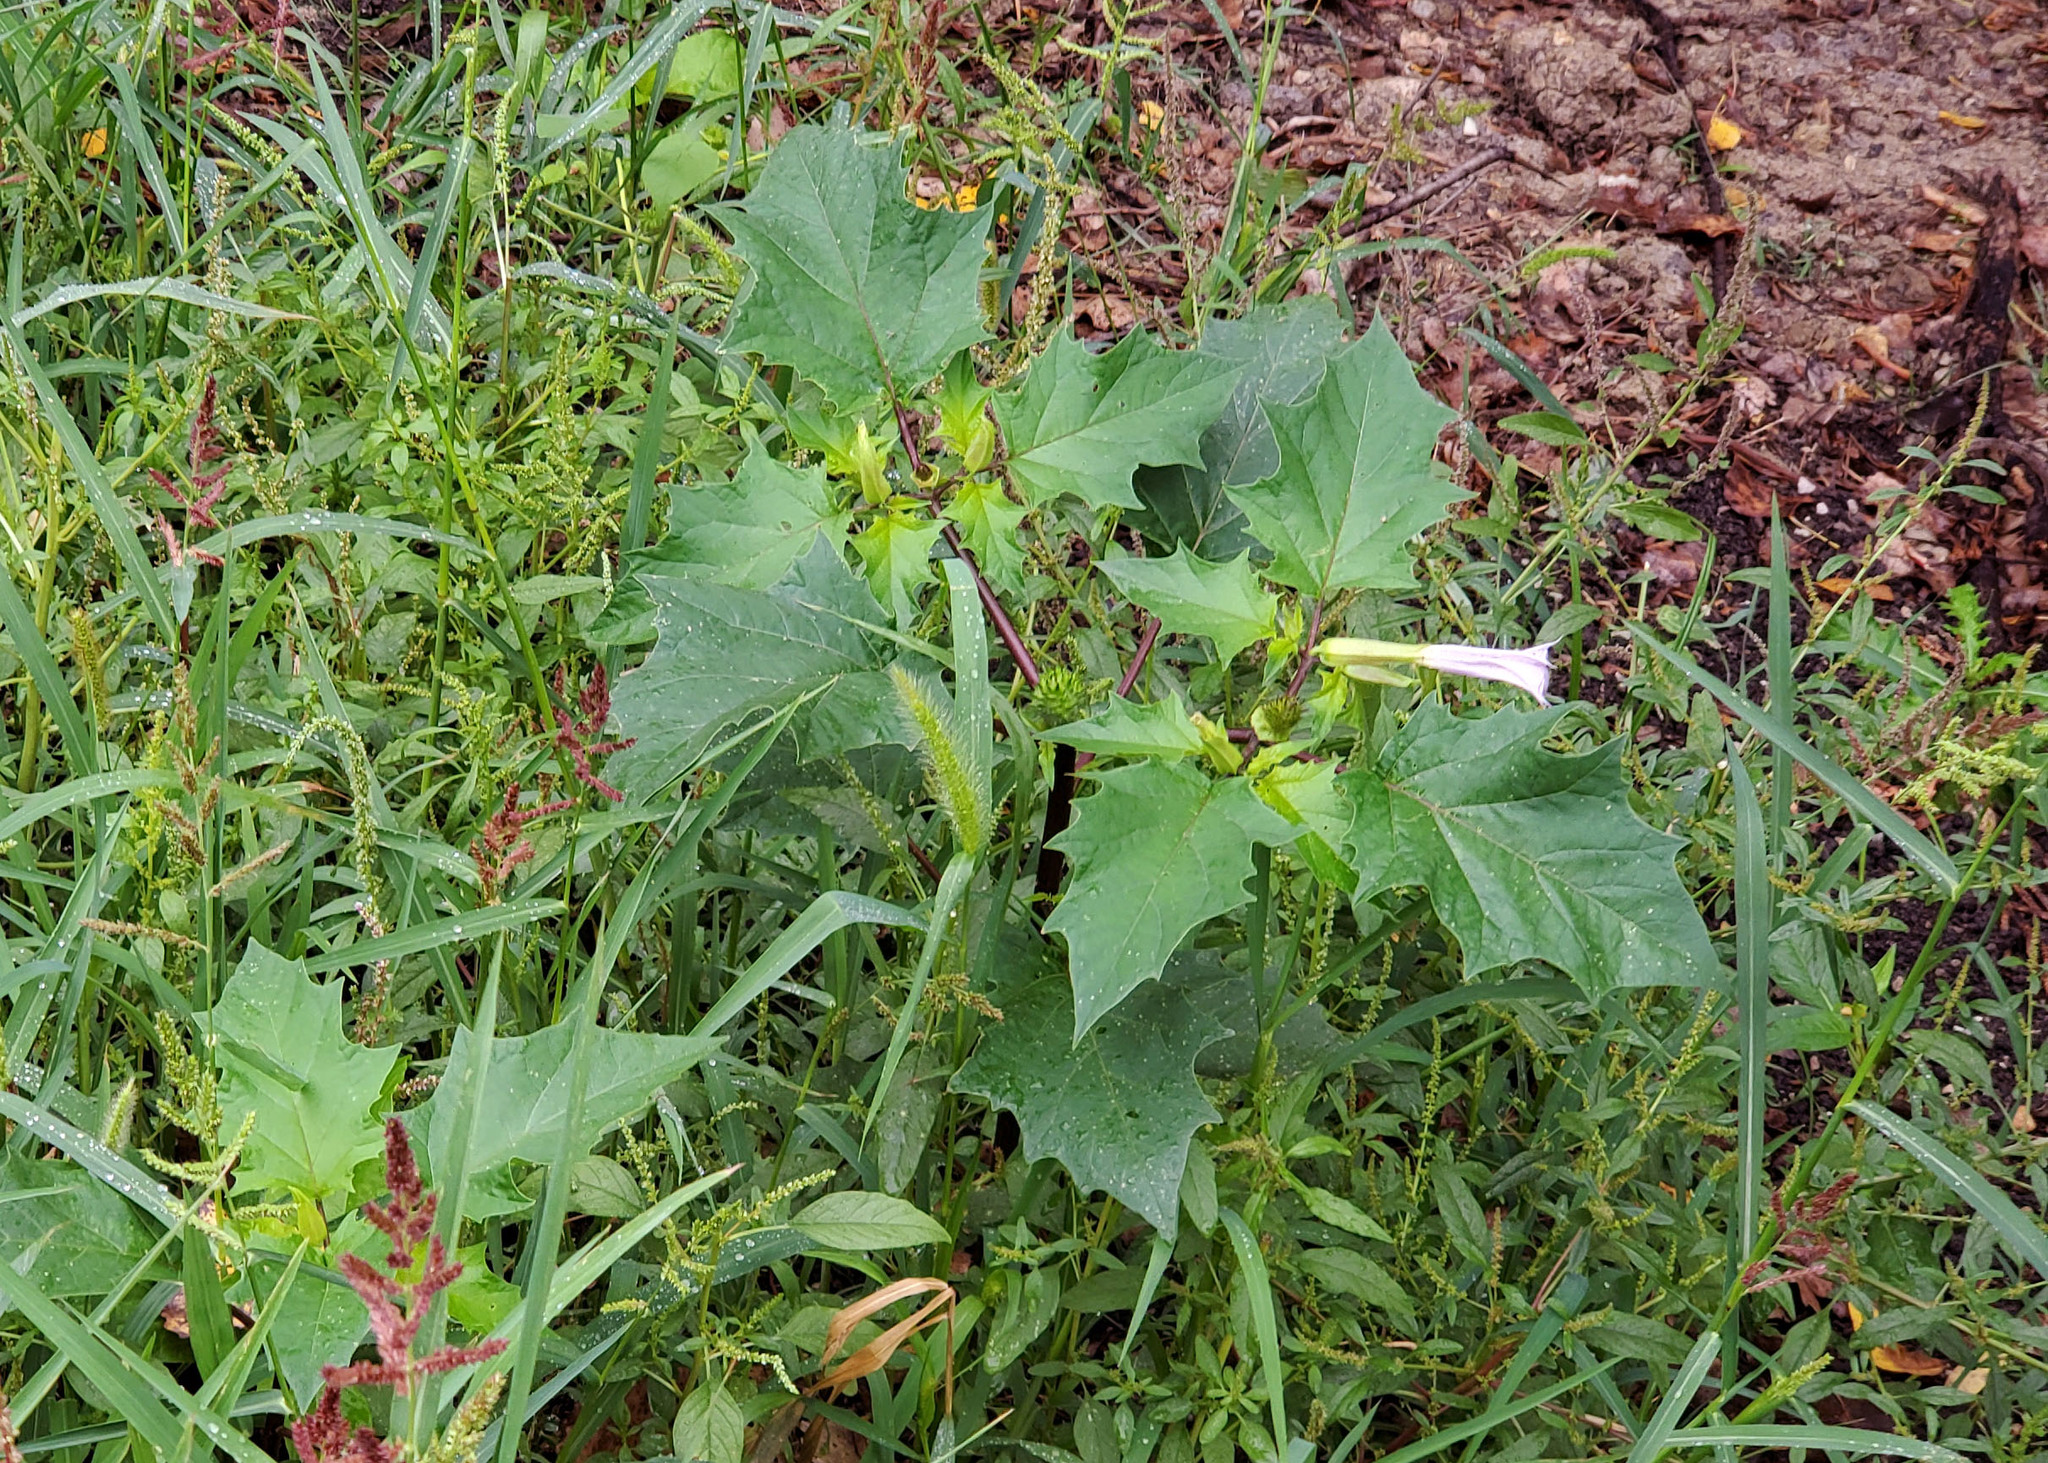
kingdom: Plantae
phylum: Tracheophyta
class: Magnoliopsida
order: Solanales
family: Solanaceae
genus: Datura
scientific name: Datura stramonium
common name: Thorn-apple
